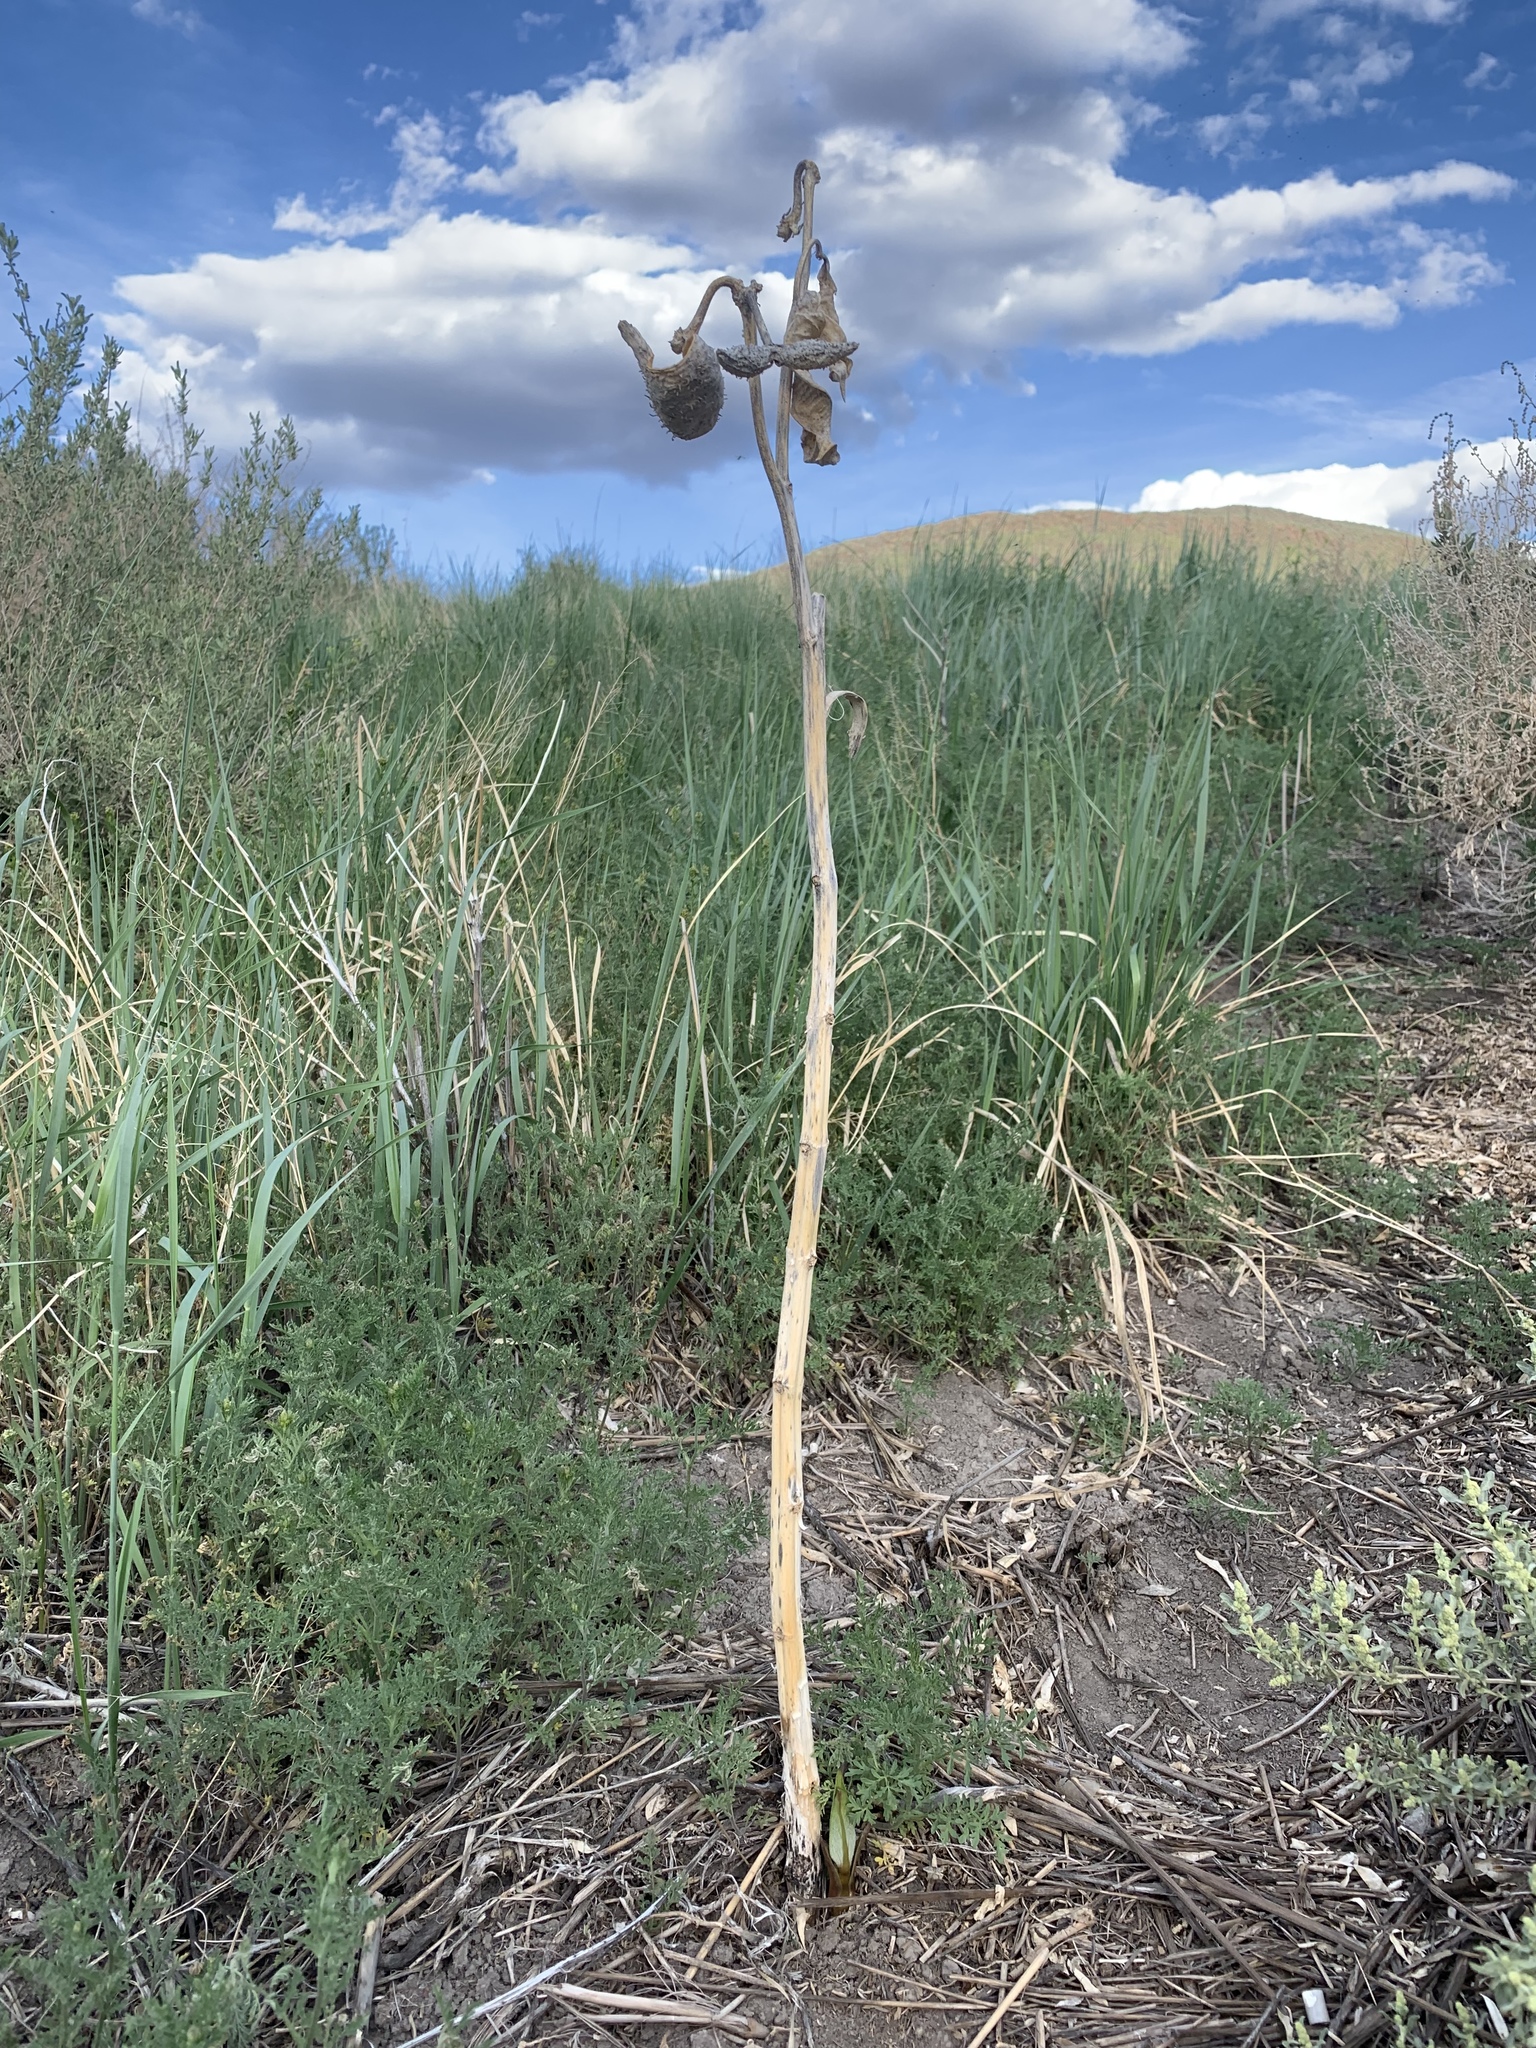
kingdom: Plantae
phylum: Tracheophyta
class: Magnoliopsida
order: Gentianales
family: Apocynaceae
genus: Asclepias
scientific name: Asclepias speciosa
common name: Showy milkweed
